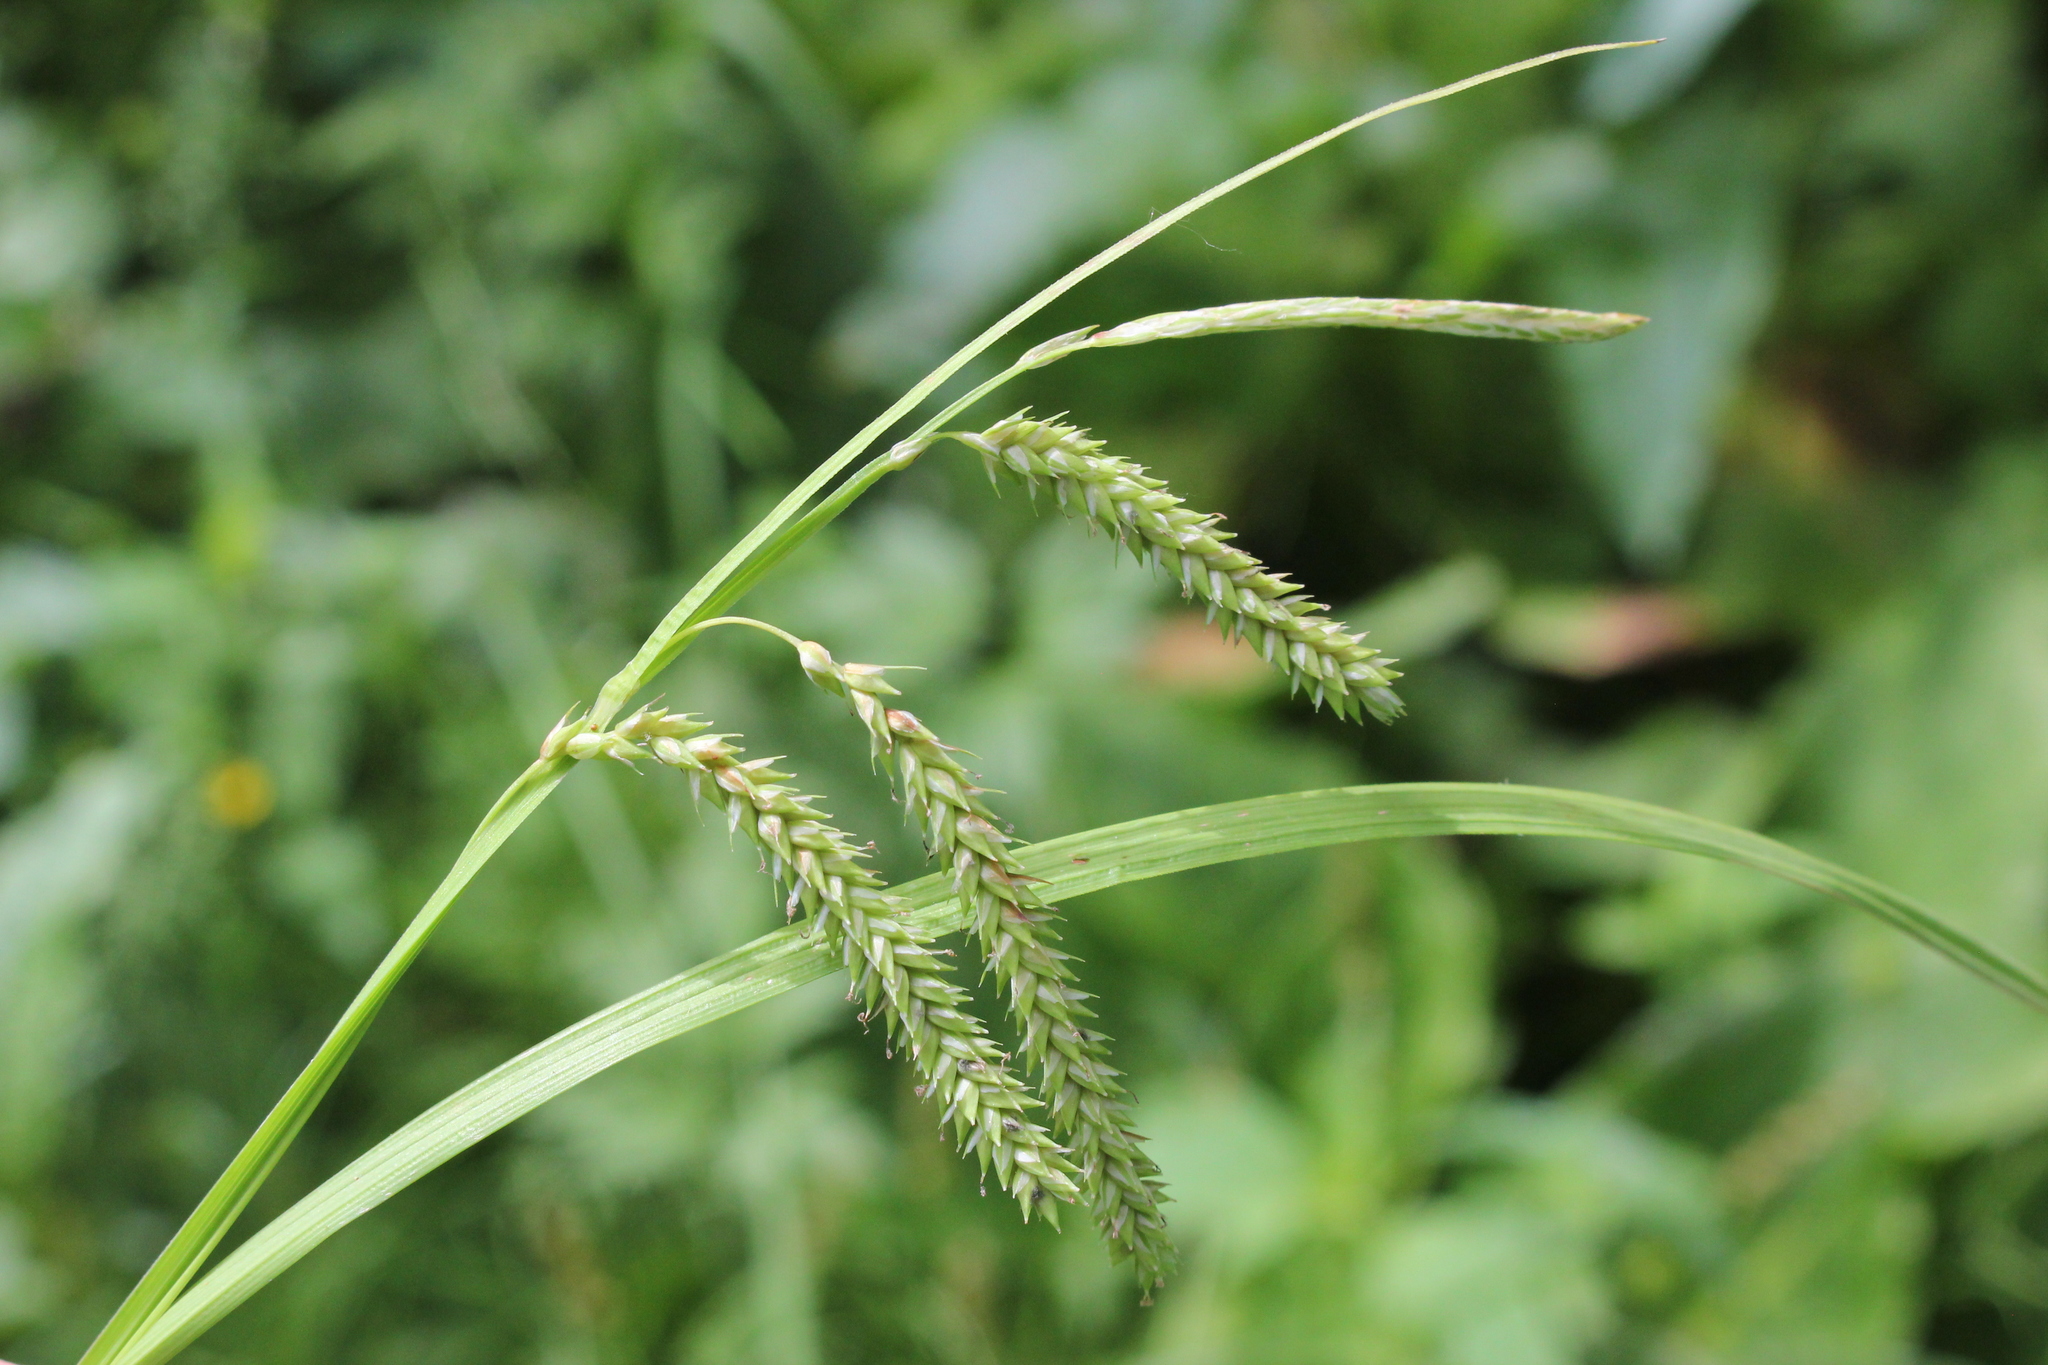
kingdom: Plantae
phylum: Tracheophyta
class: Liliopsida
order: Poales
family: Cyperaceae
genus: Carex
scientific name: Carex prasina
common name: Drooping sedge
